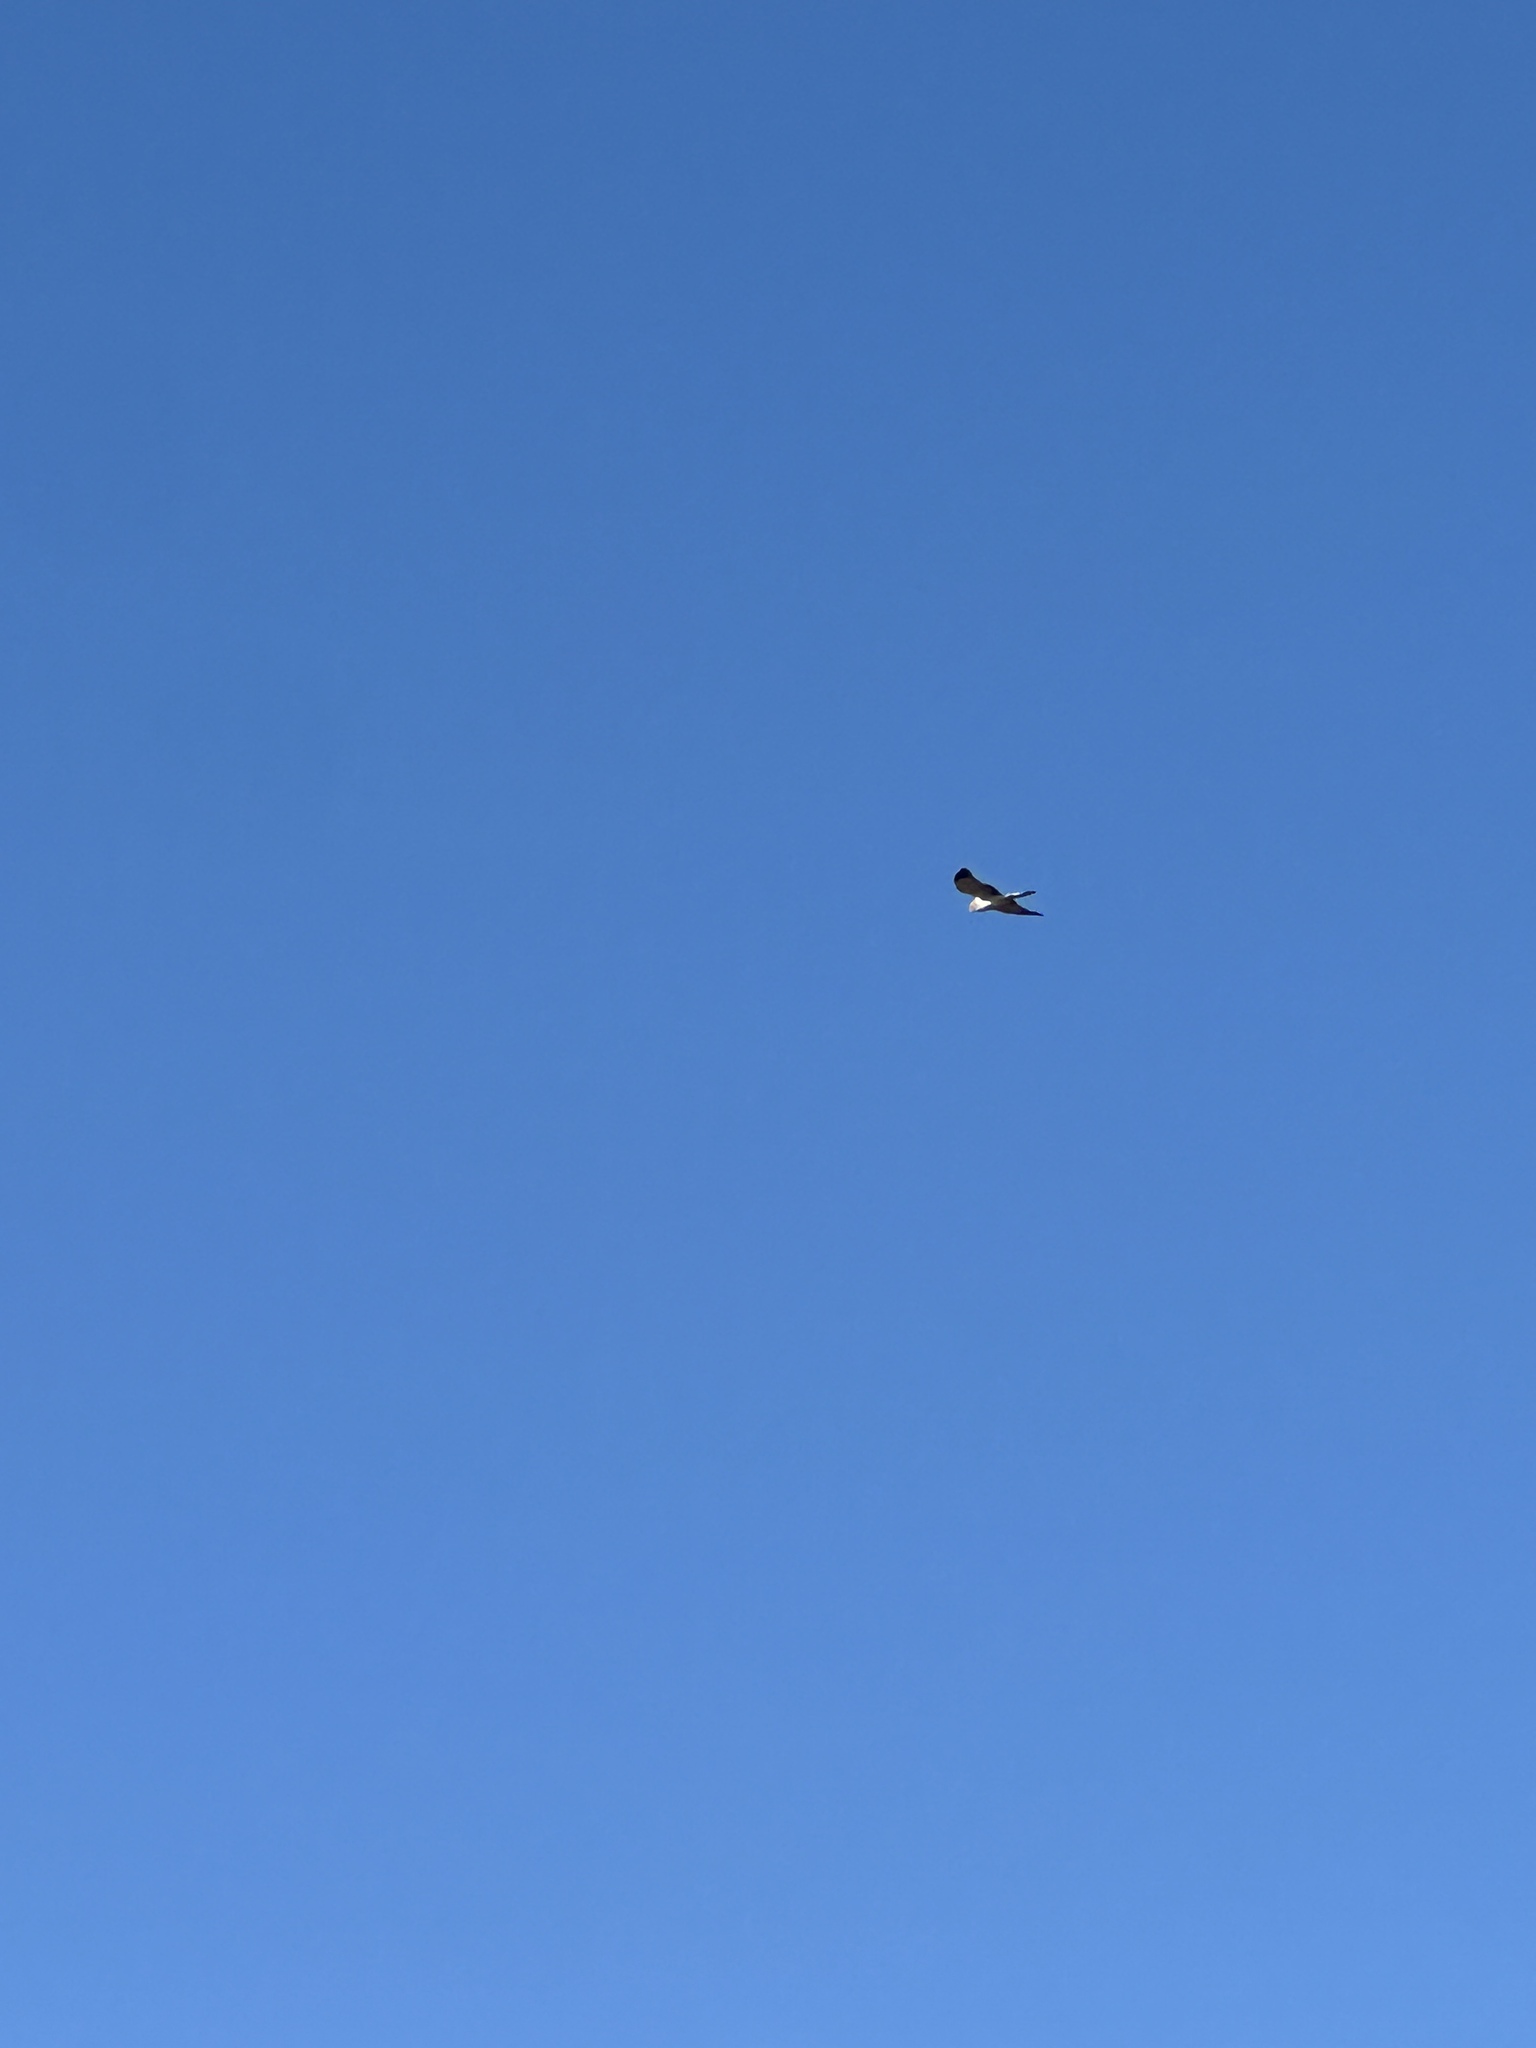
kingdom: Animalia
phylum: Chordata
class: Aves
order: Accipitriformes
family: Accipitridae
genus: Circus
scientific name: Circus cyaneus
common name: Hen harrier
